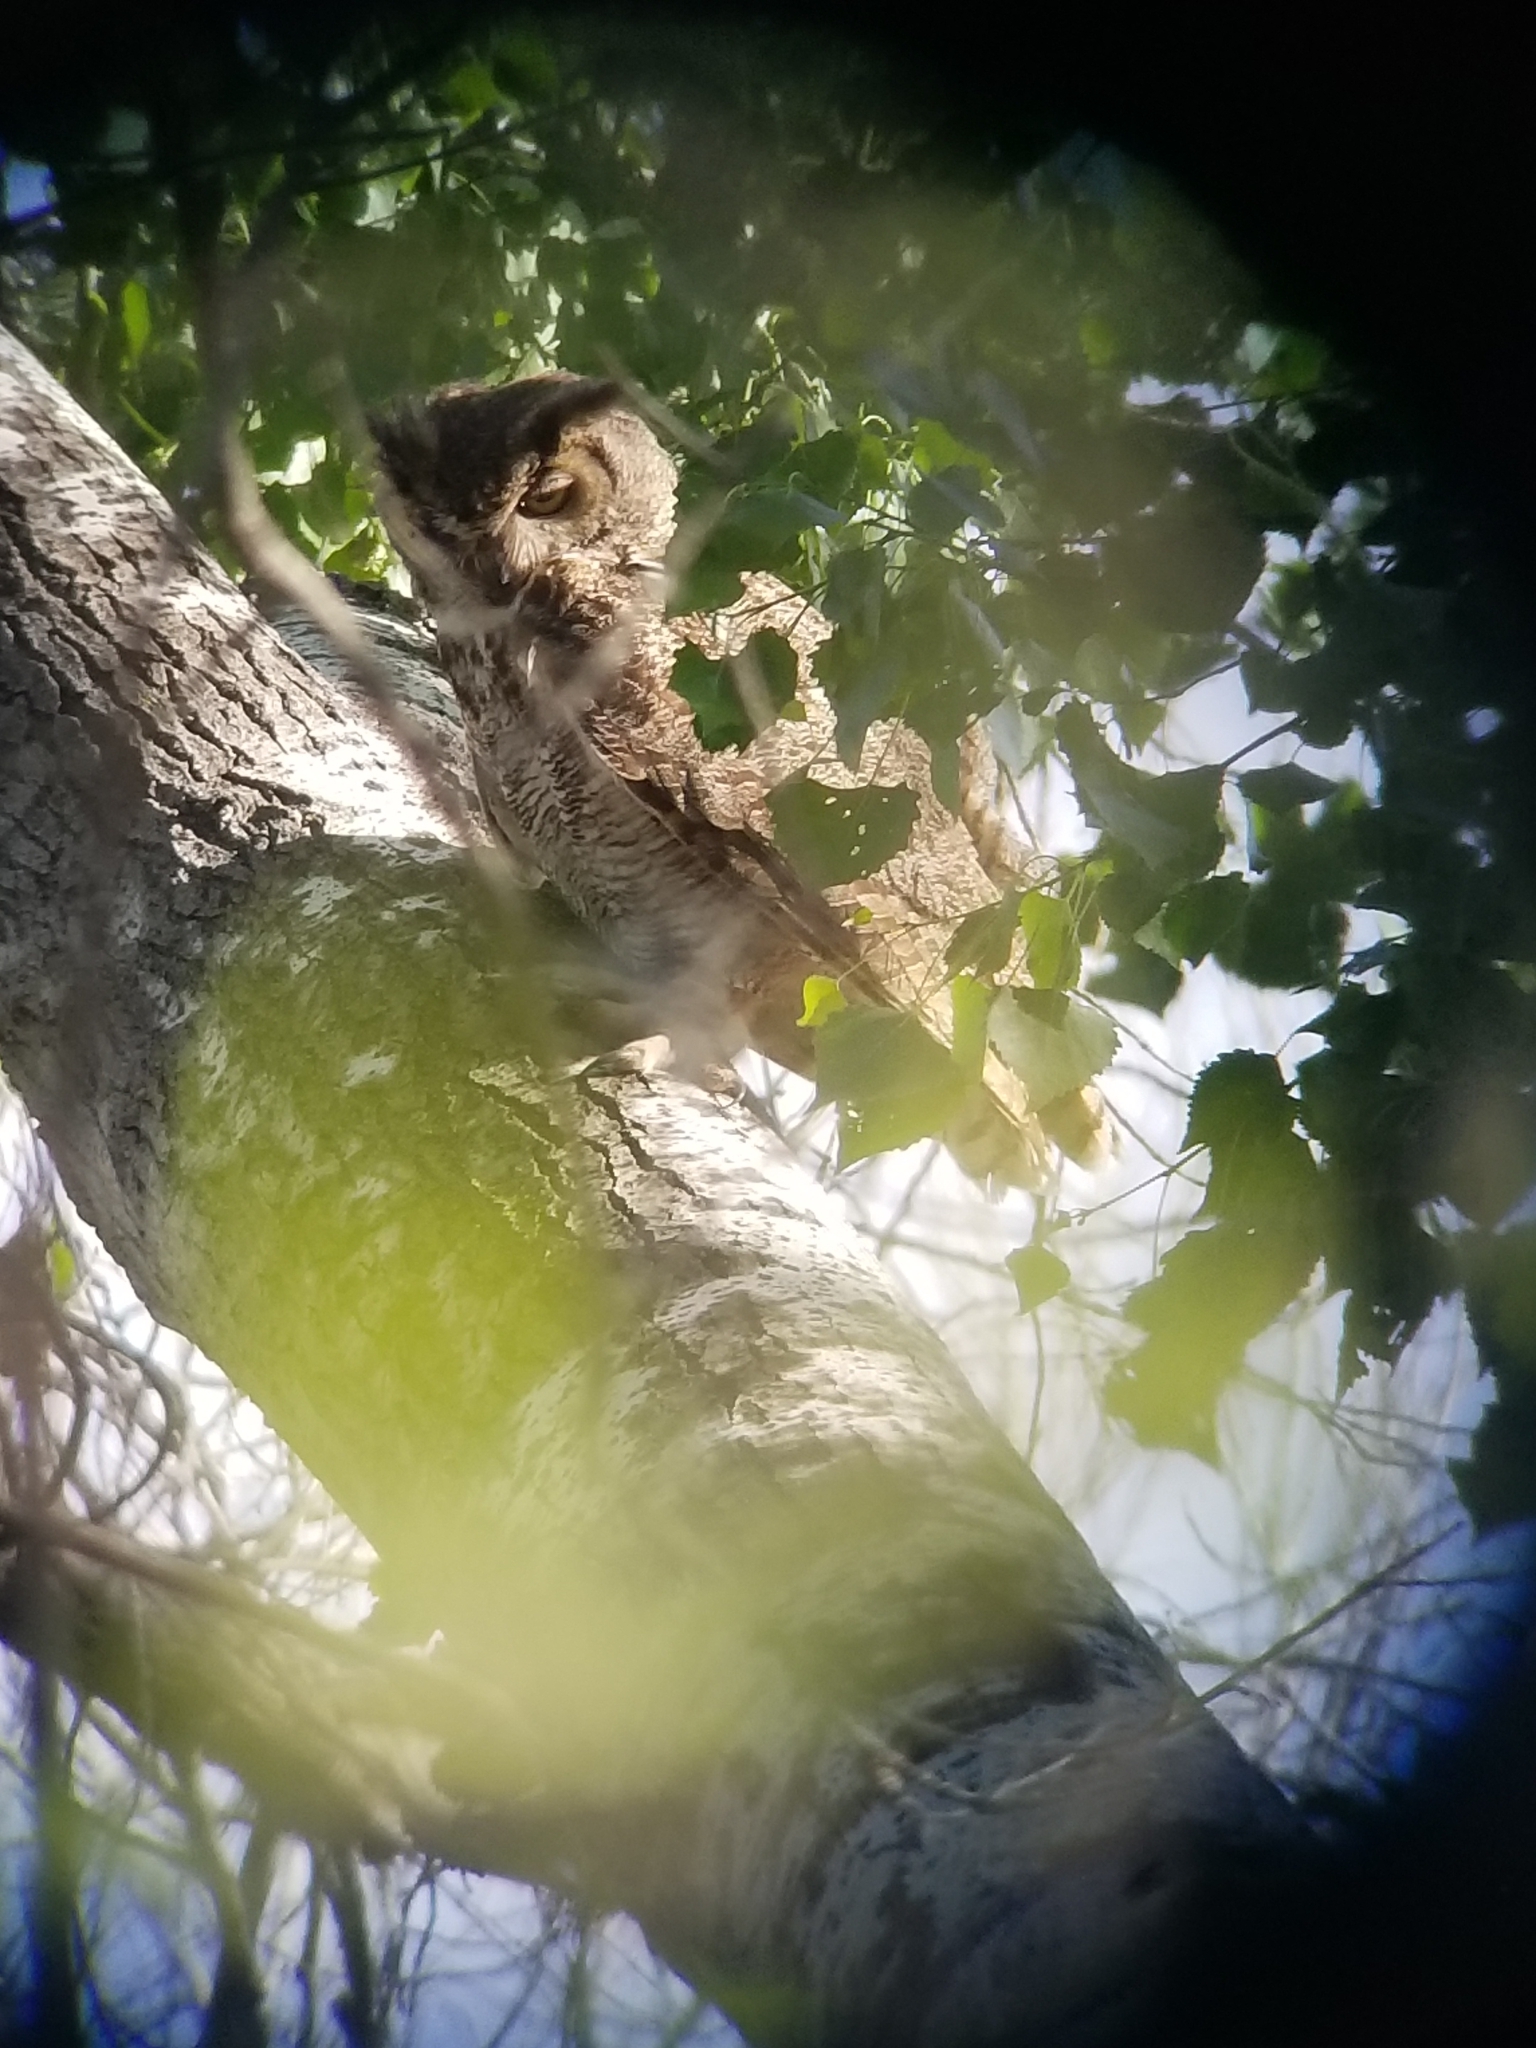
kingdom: Animalia
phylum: Chordata
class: Aves
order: Strigiformes
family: Strigidae
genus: Bubo
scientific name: Bubo virginianus
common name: Great horned owl
